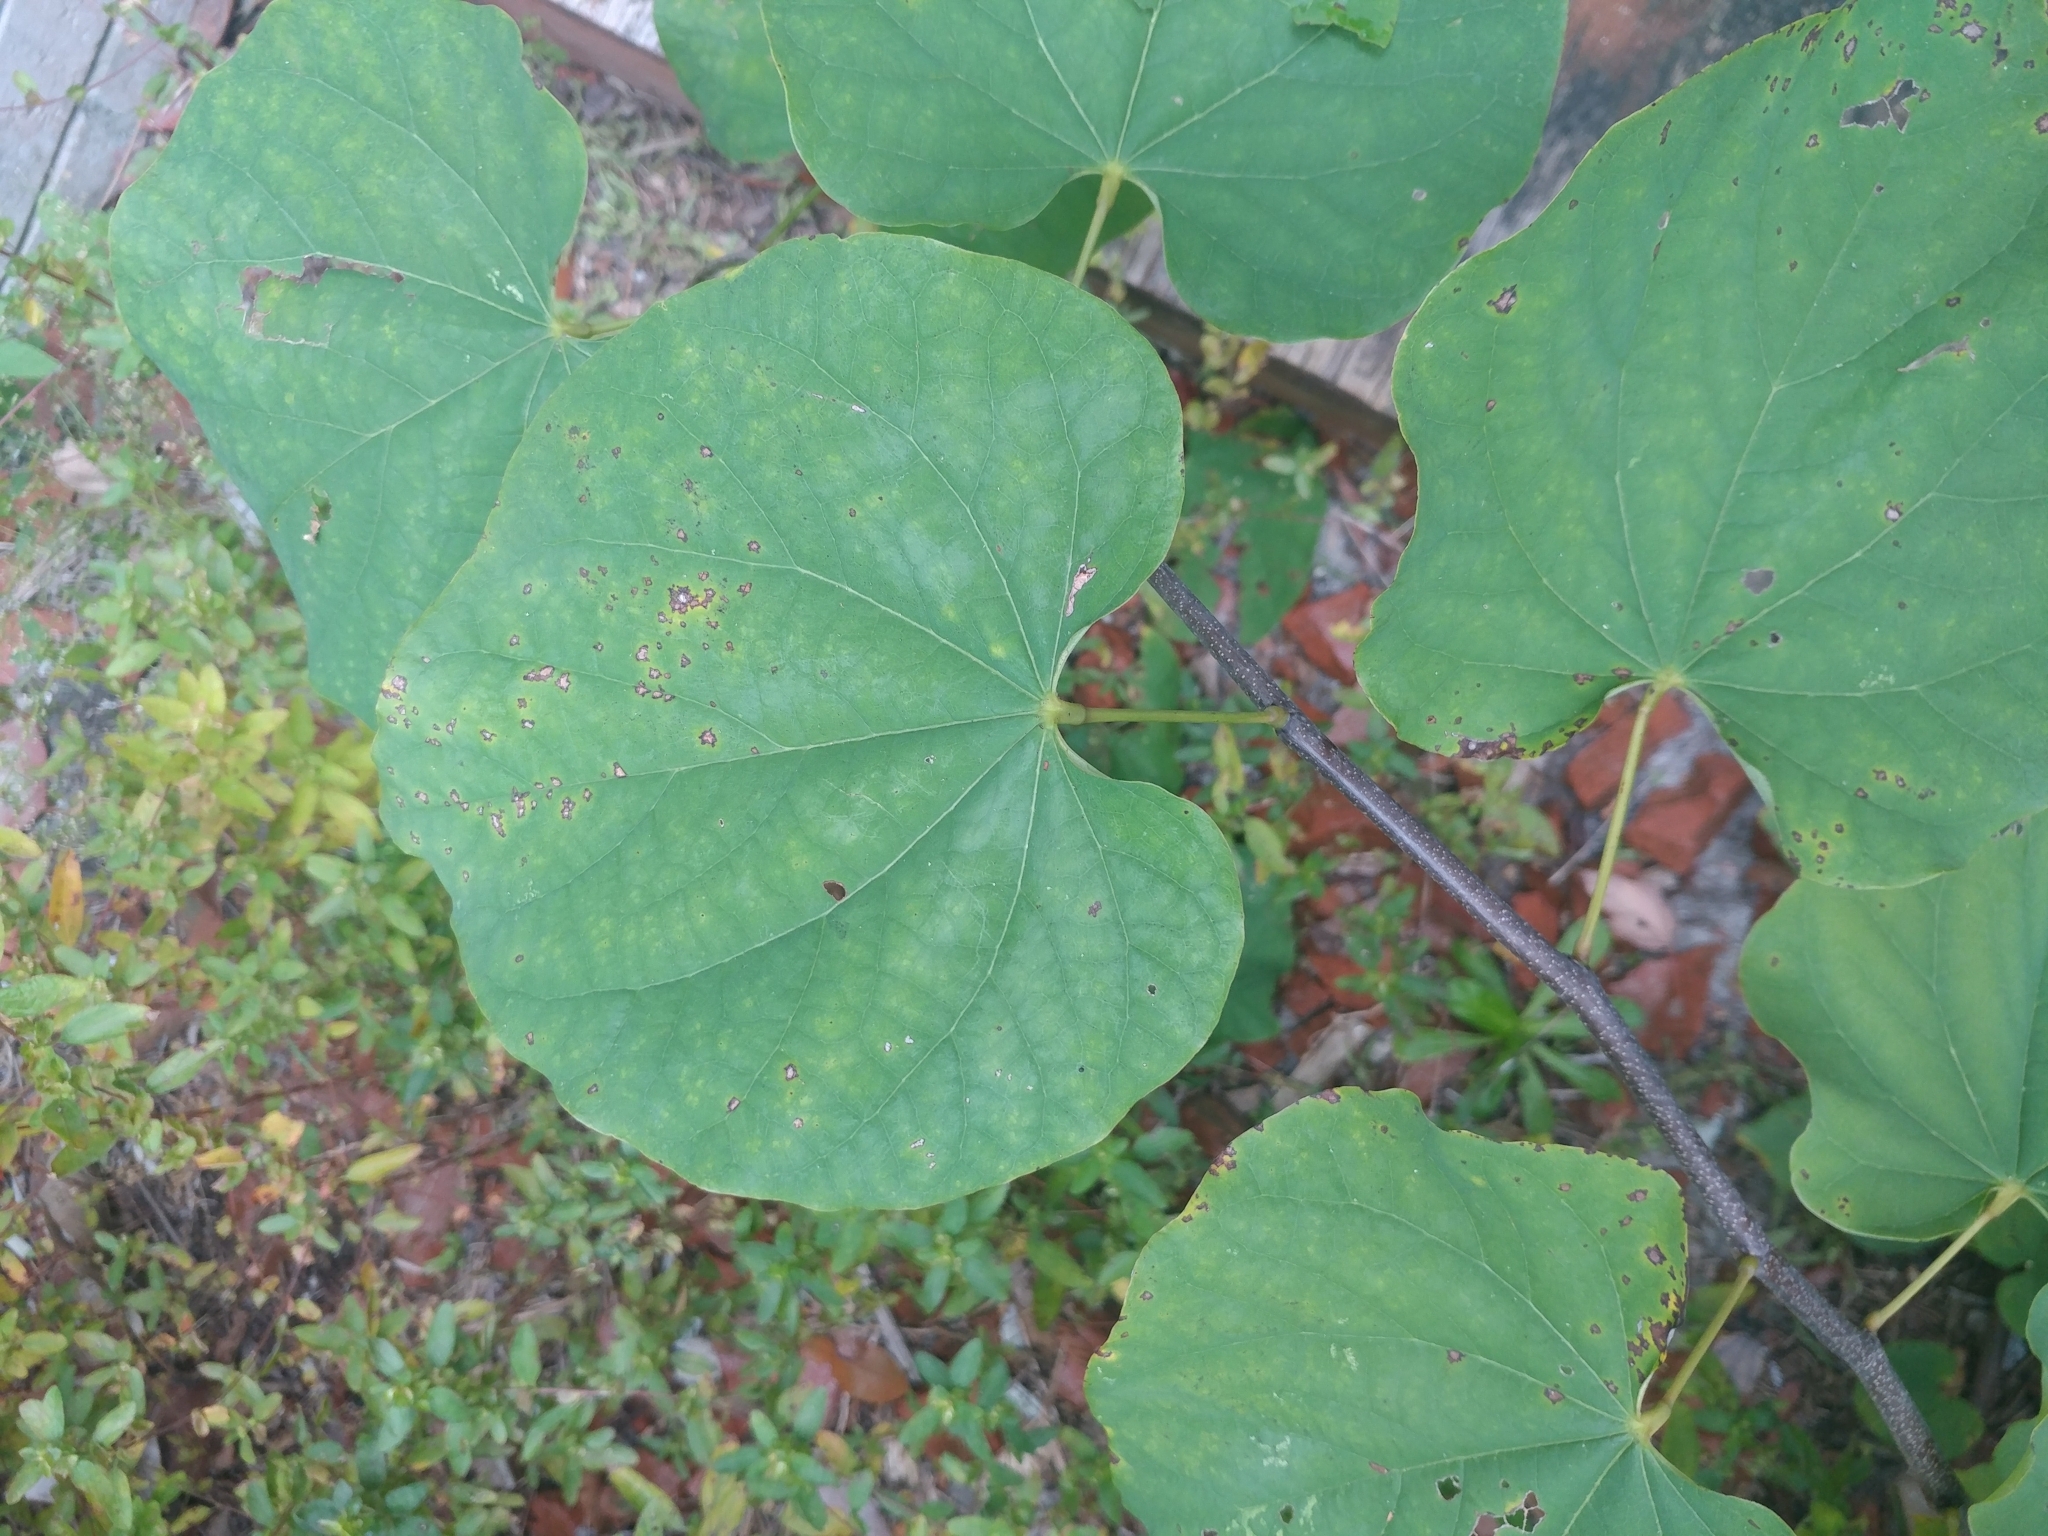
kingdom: Plantae
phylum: Tracheophyta
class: Magnoliopsida
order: Fabales
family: Fabaceae
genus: Cercis
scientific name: Cercis canadensis
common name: Eastern redbud
